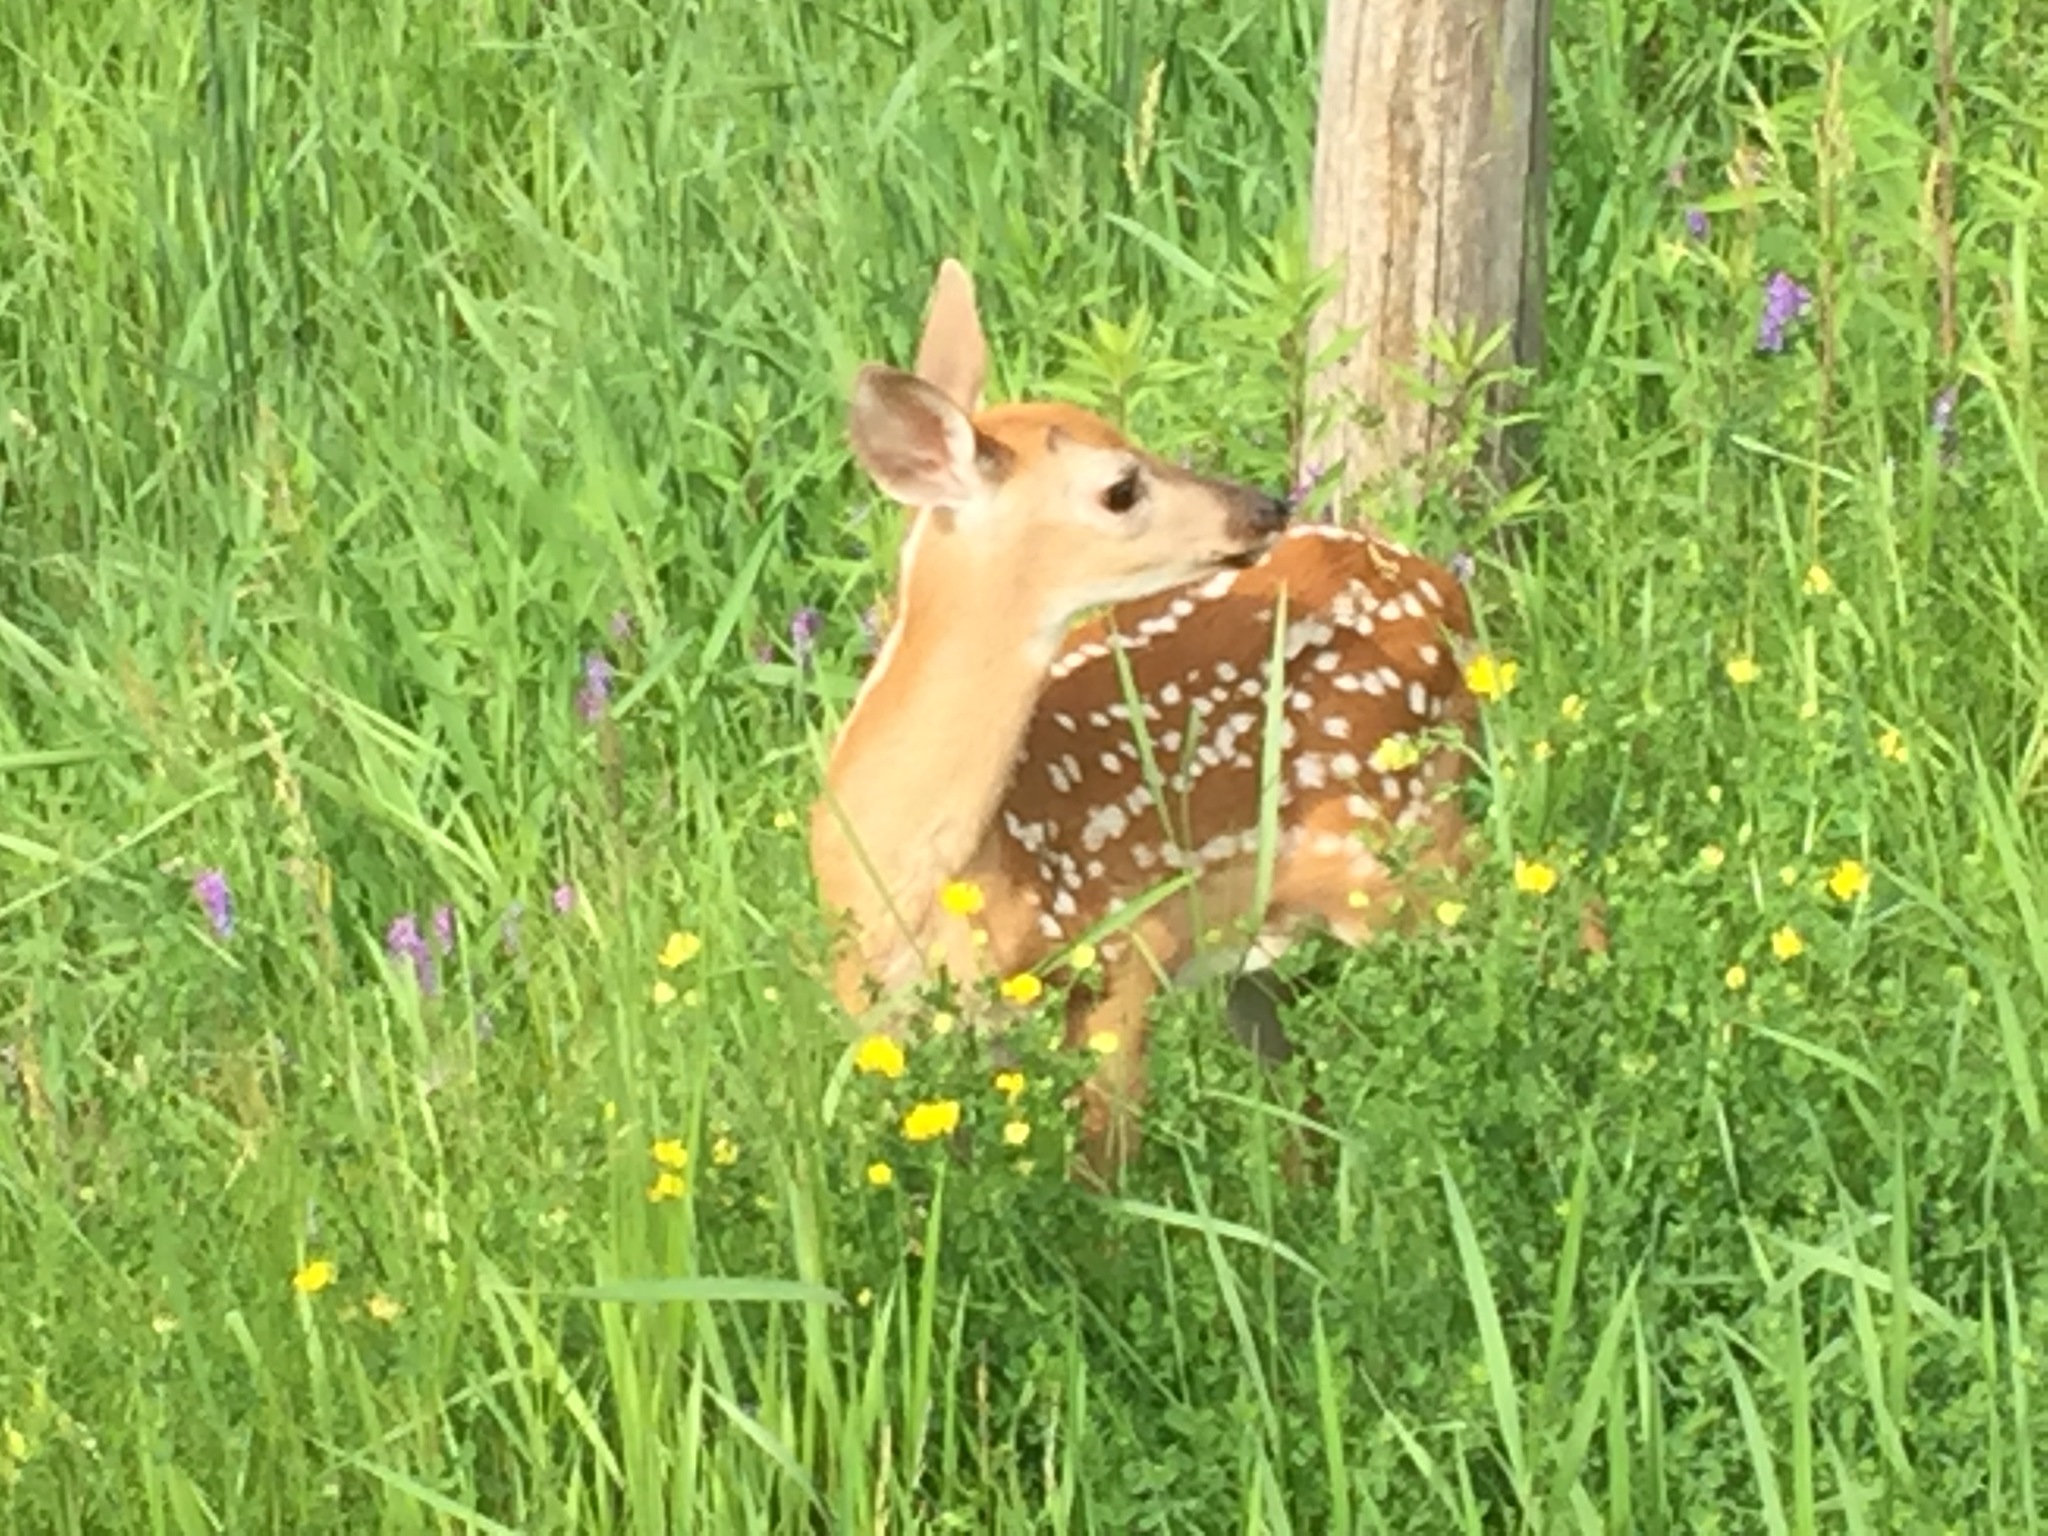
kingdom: Animalia
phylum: Chordata
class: Mammalia
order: Artiodactyla
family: Cervidae
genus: Odocoileus
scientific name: Odocoileus virginianus
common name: White-tailed deer
